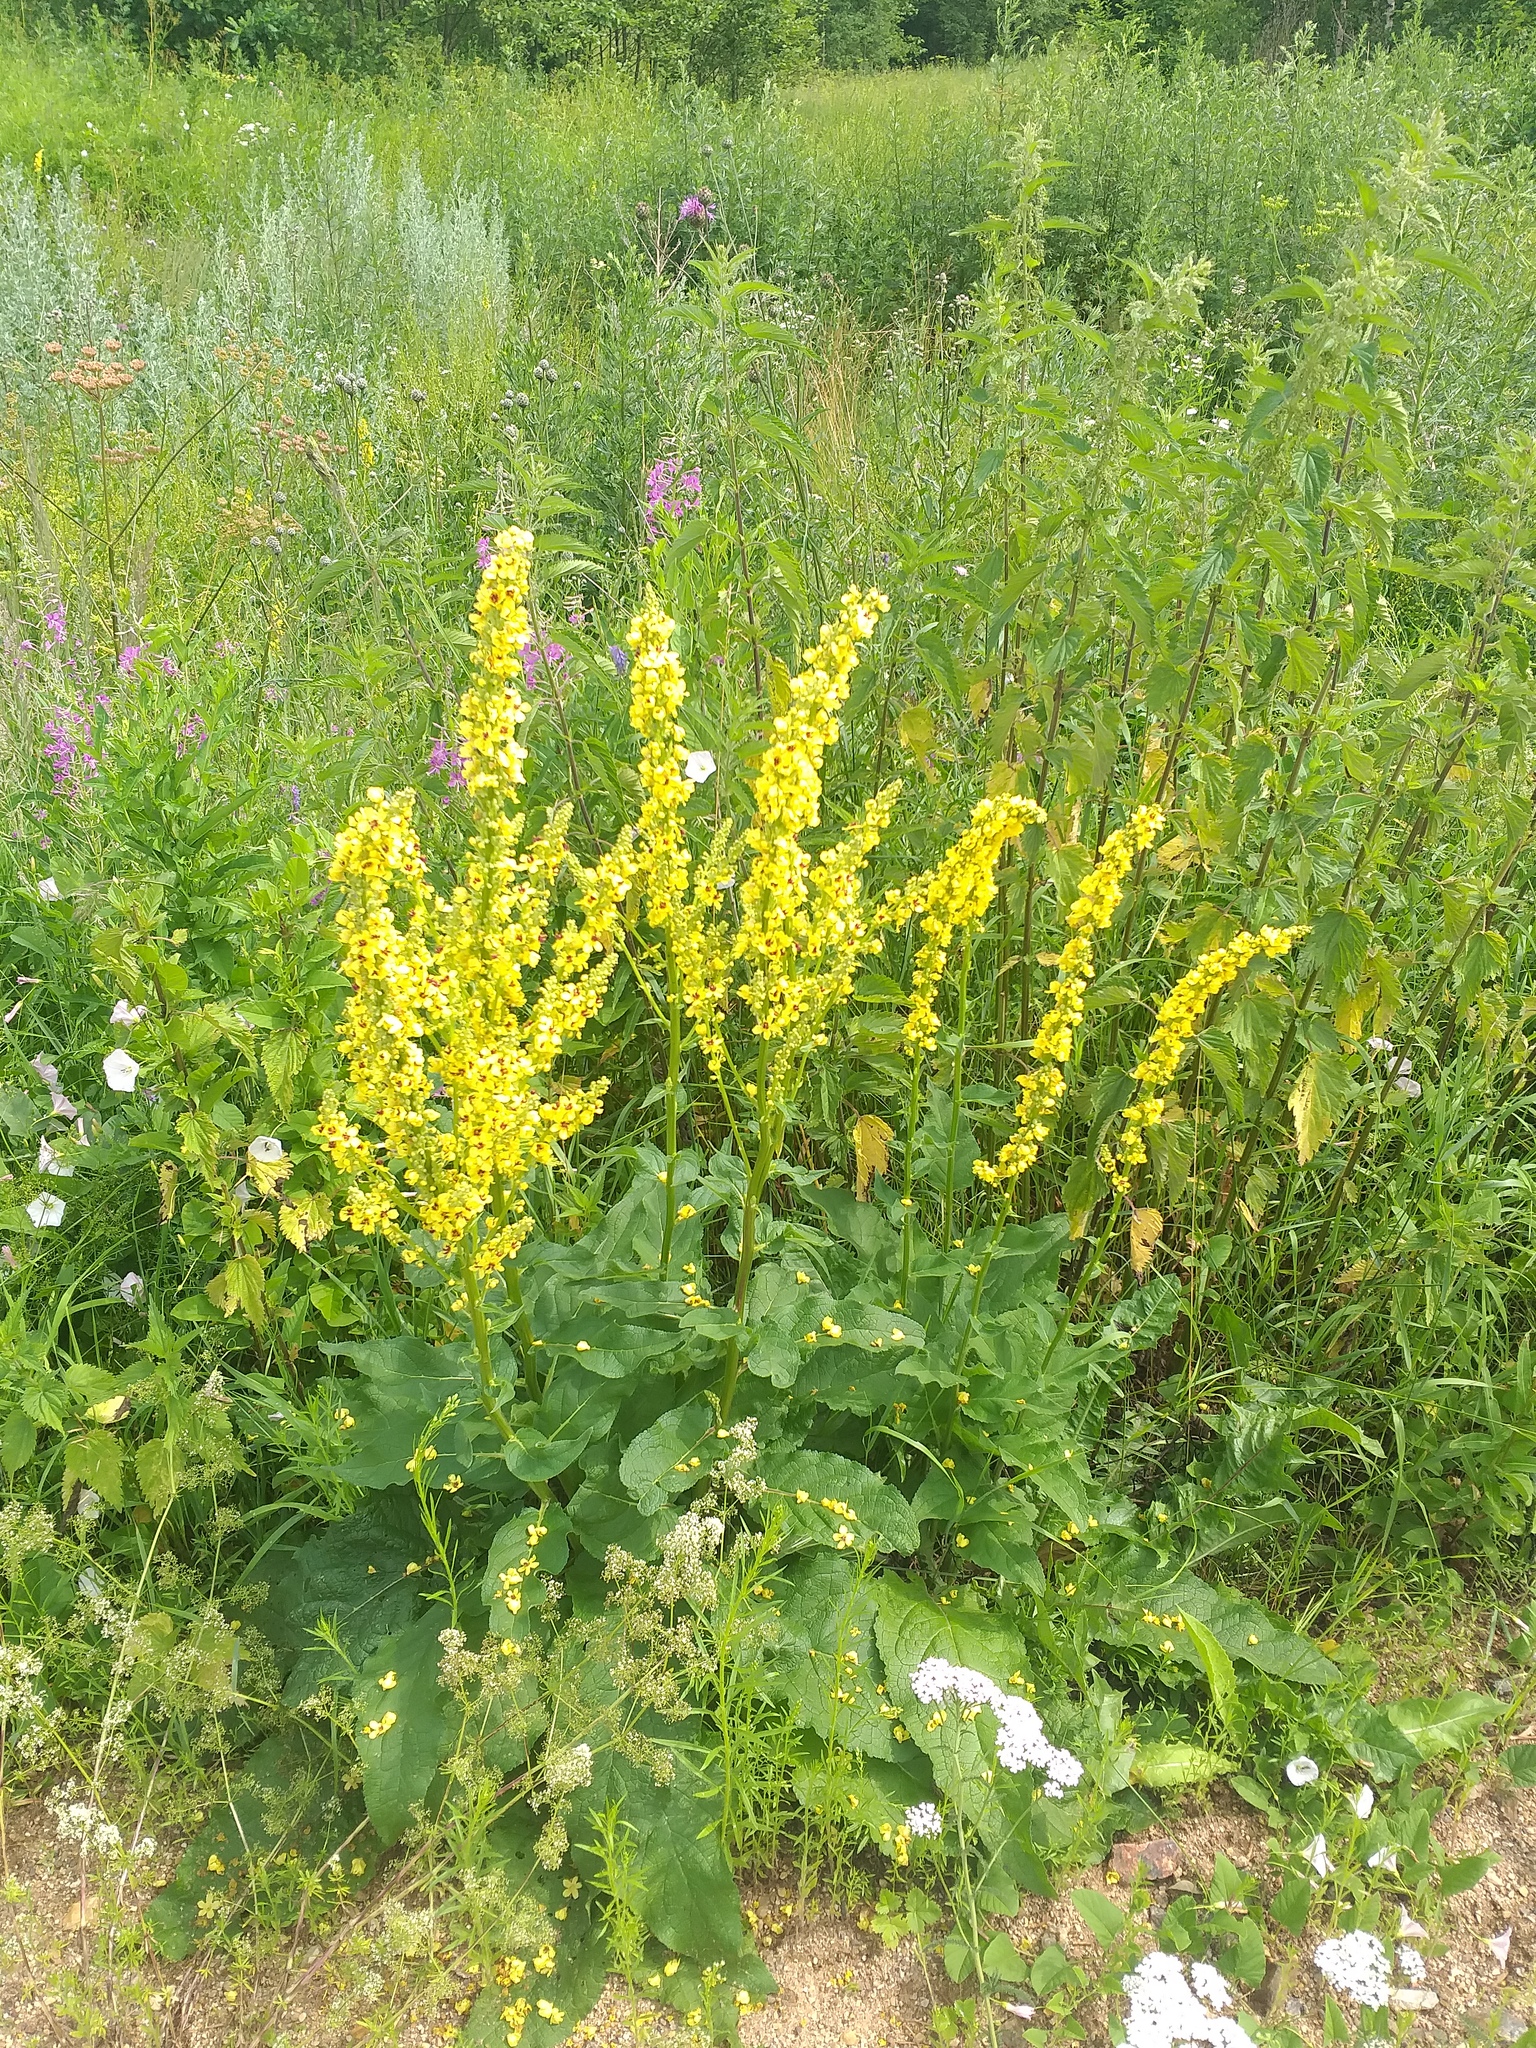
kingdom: Plantae
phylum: Tracheophyta
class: Magnoliopsida
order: Lamiales
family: Scrophulariaceae
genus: Verbascum
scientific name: Verbascum nigrum
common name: Dark mullein
